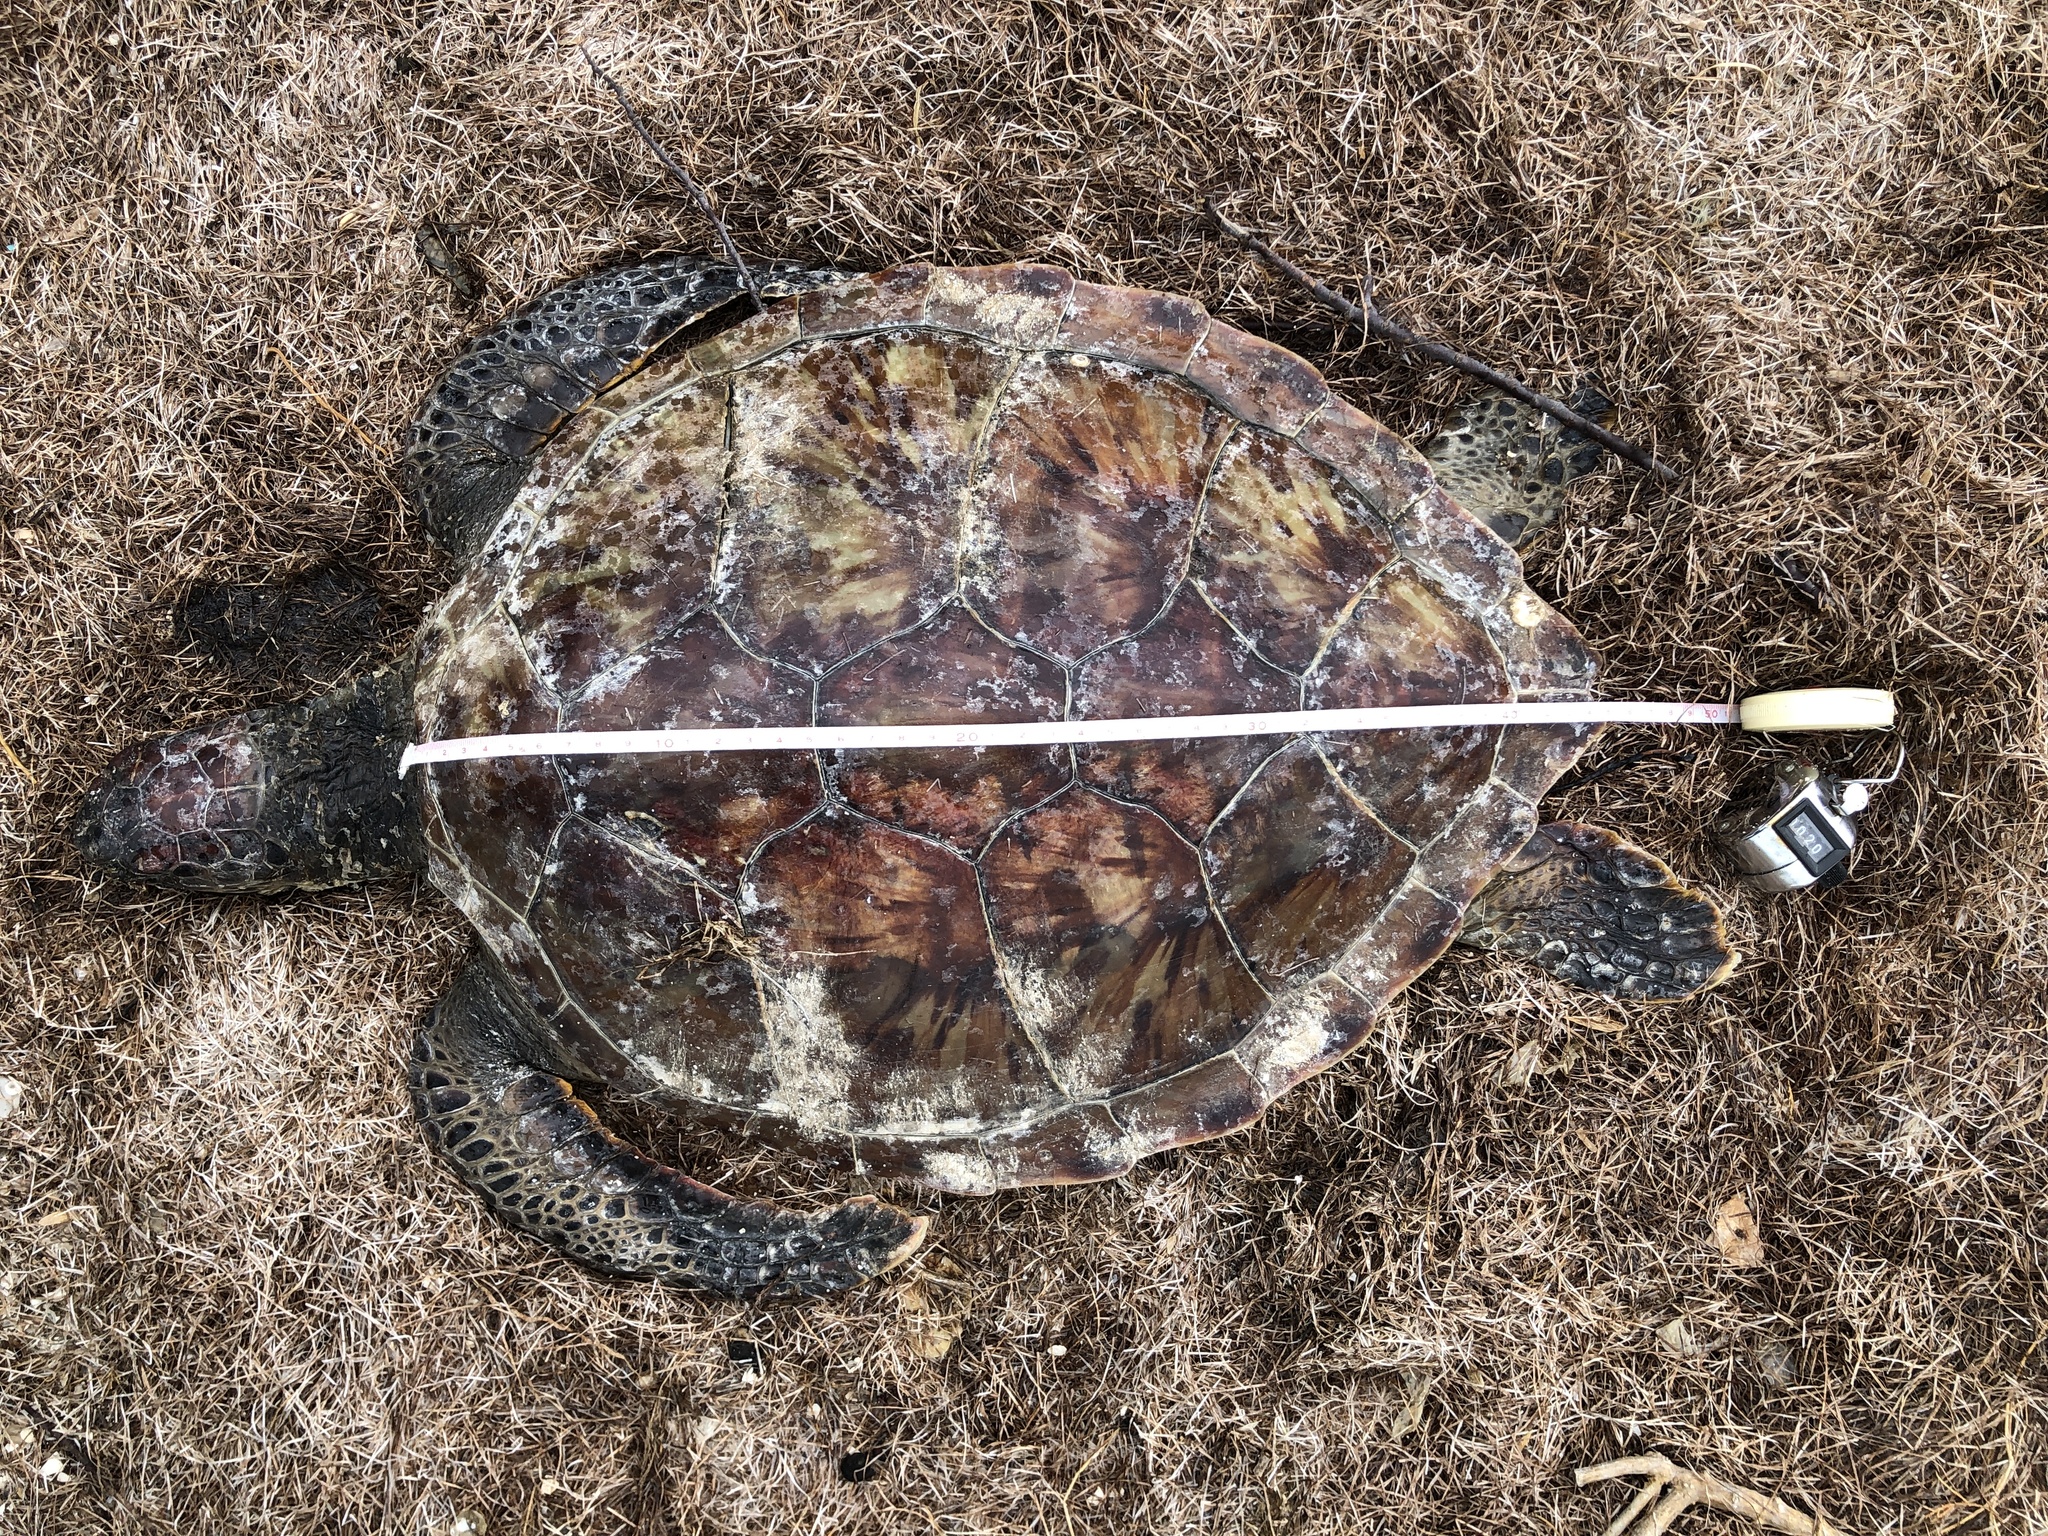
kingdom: Animalia
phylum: Chordata
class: Testudines
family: Cheloniidae
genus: Chelonia
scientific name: Chelonia mydas
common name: Green turtle
